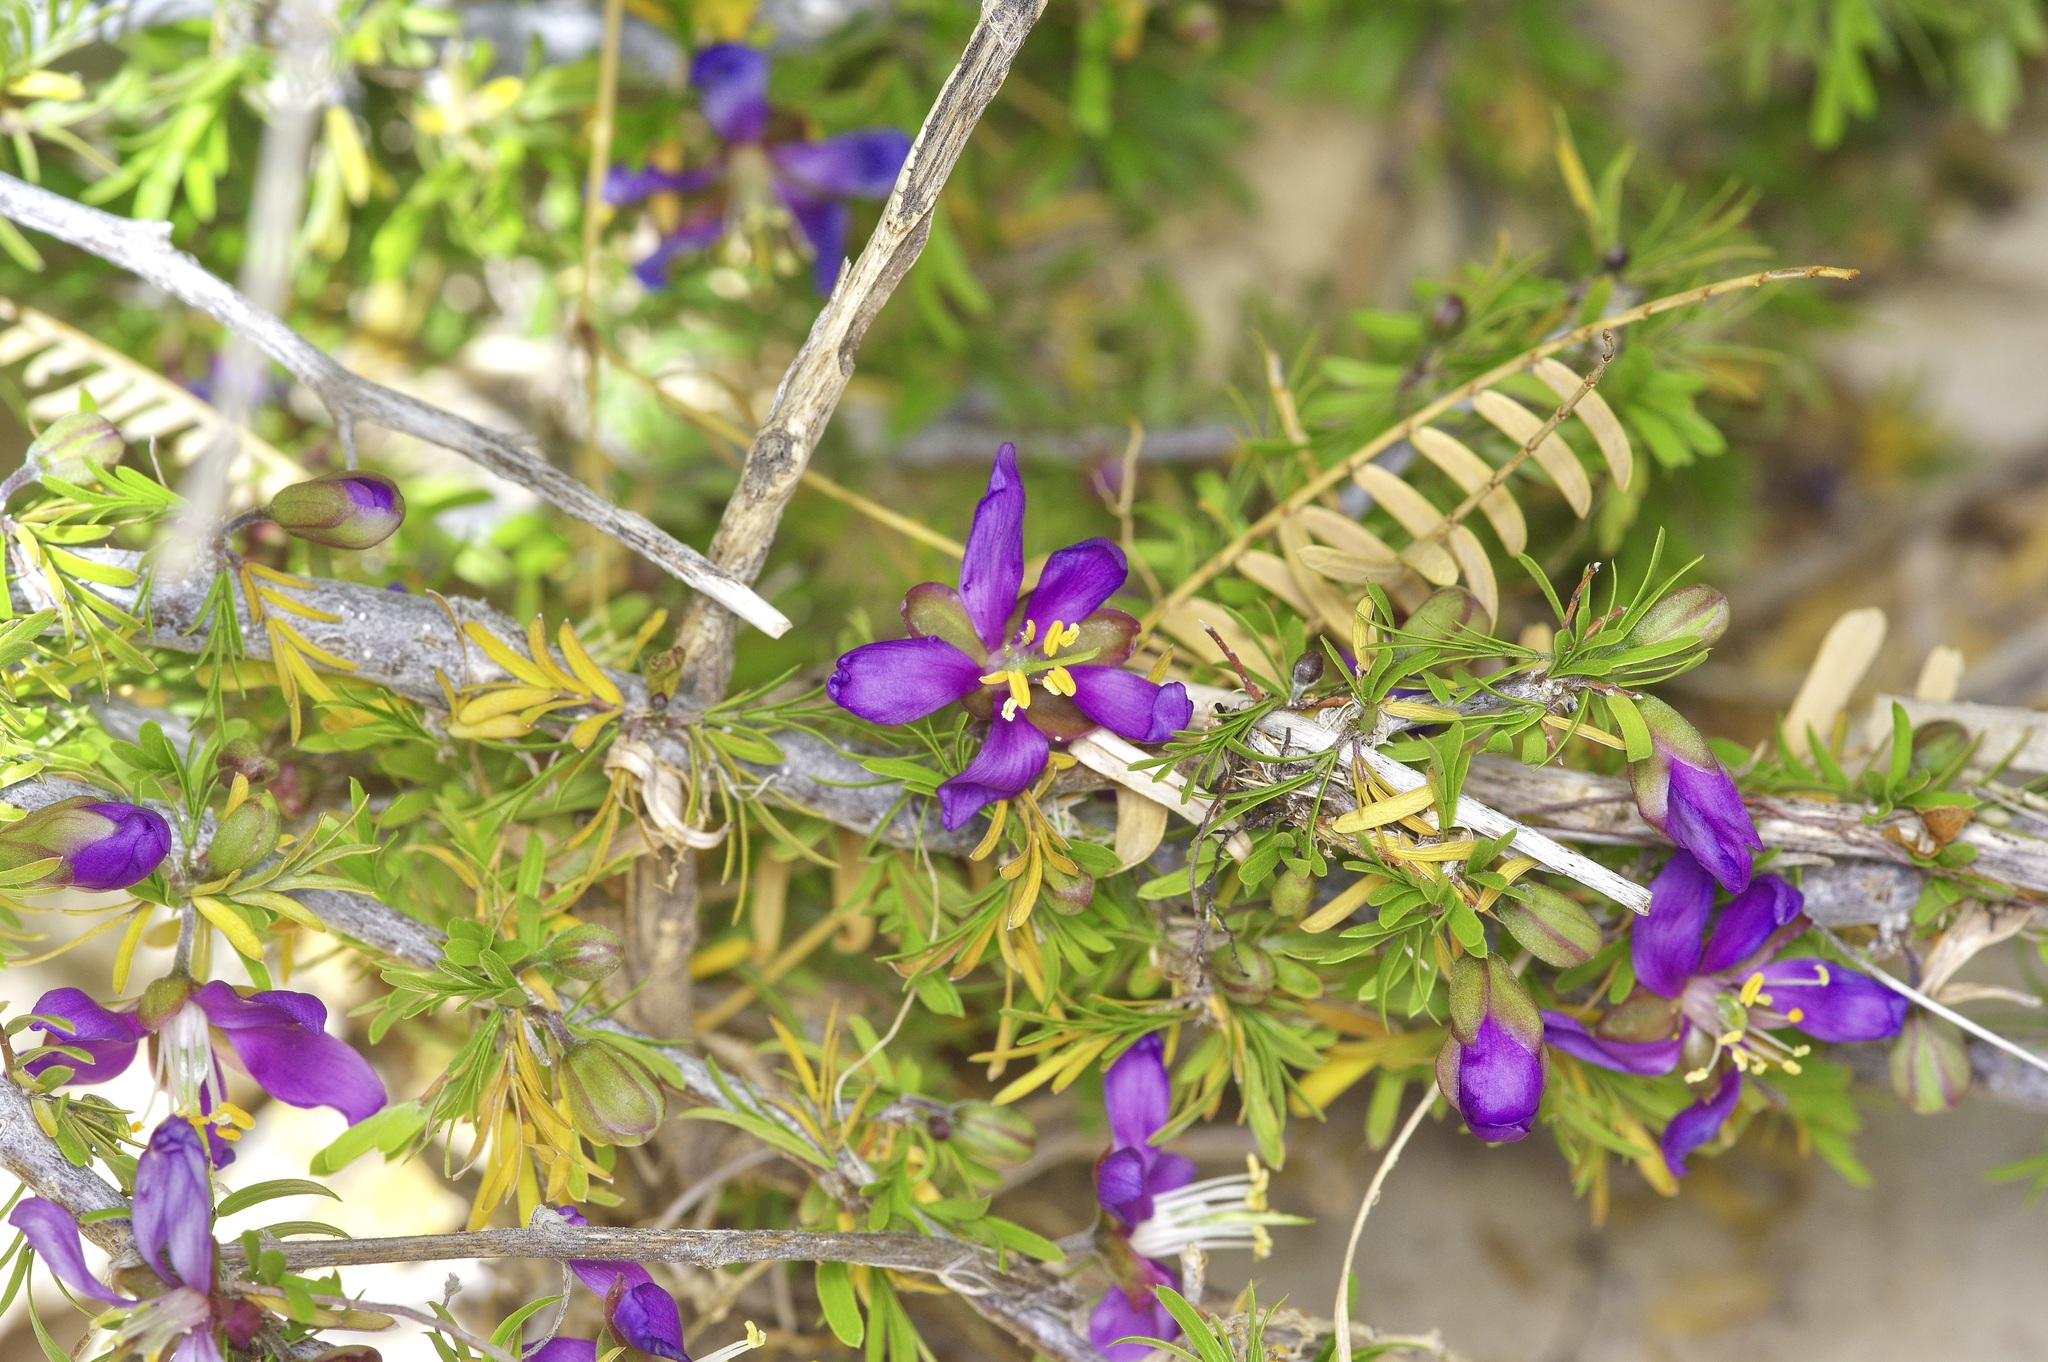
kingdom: Plantae
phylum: Tracheophyta
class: Magnoliopsida
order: Zygophyllales
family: Zygophyllaceae
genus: Porlieria
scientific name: Porlieria angustifolia
